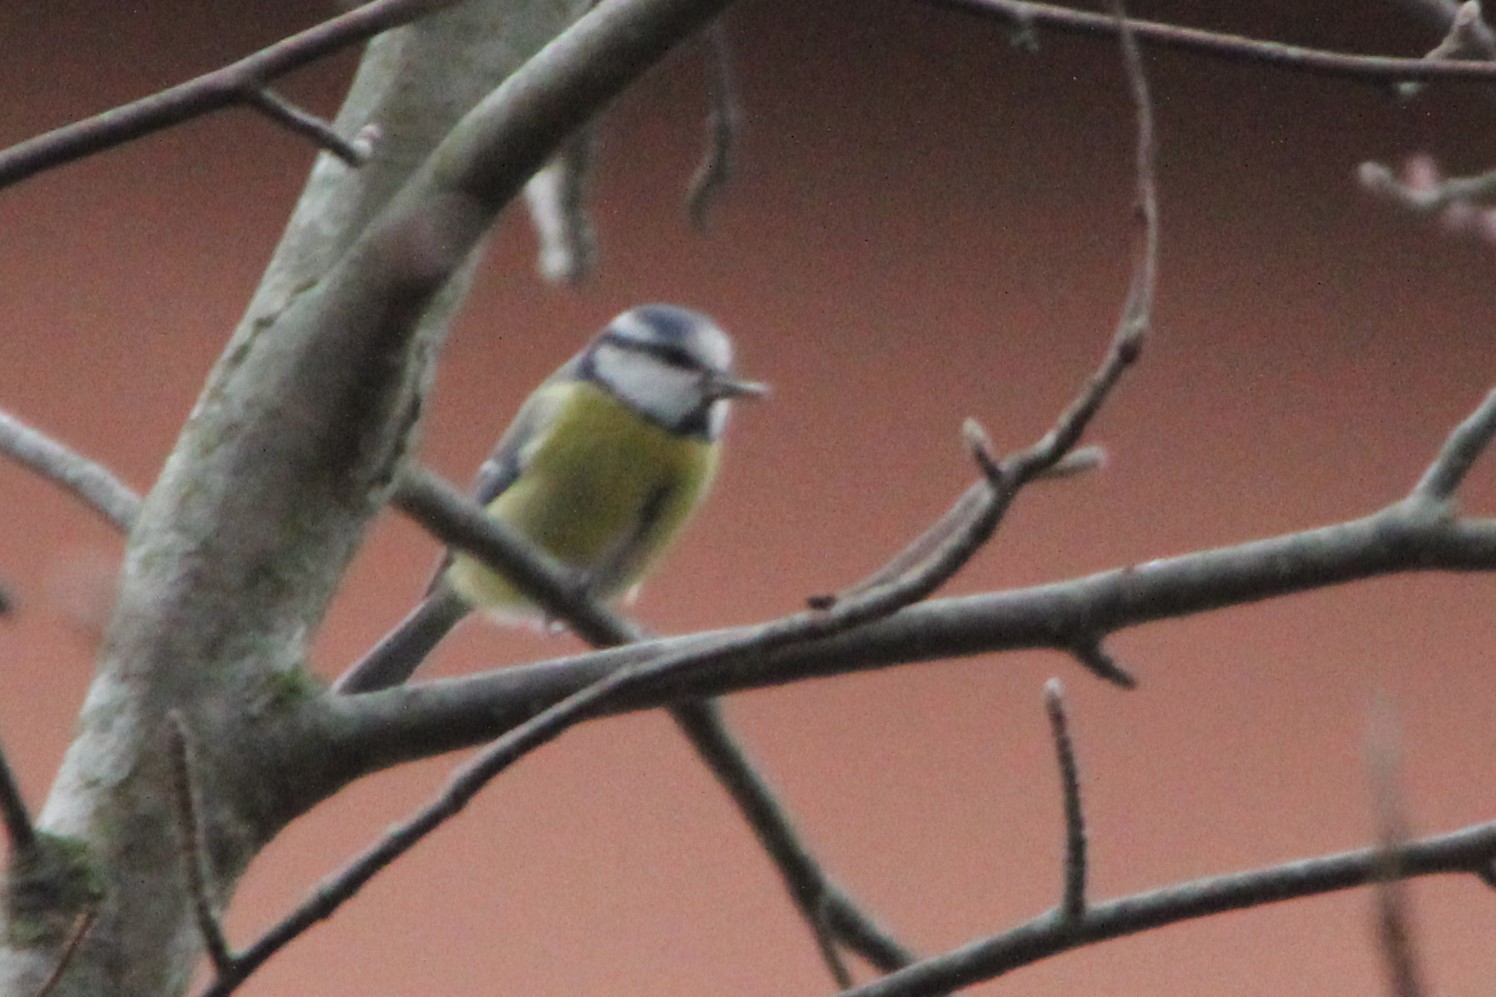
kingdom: Animalia
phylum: Chordata
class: Aves
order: Passeriformes
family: Paridae
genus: Cyanistes
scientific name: Cyanistes caeruleus
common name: Eurasian blue tit
